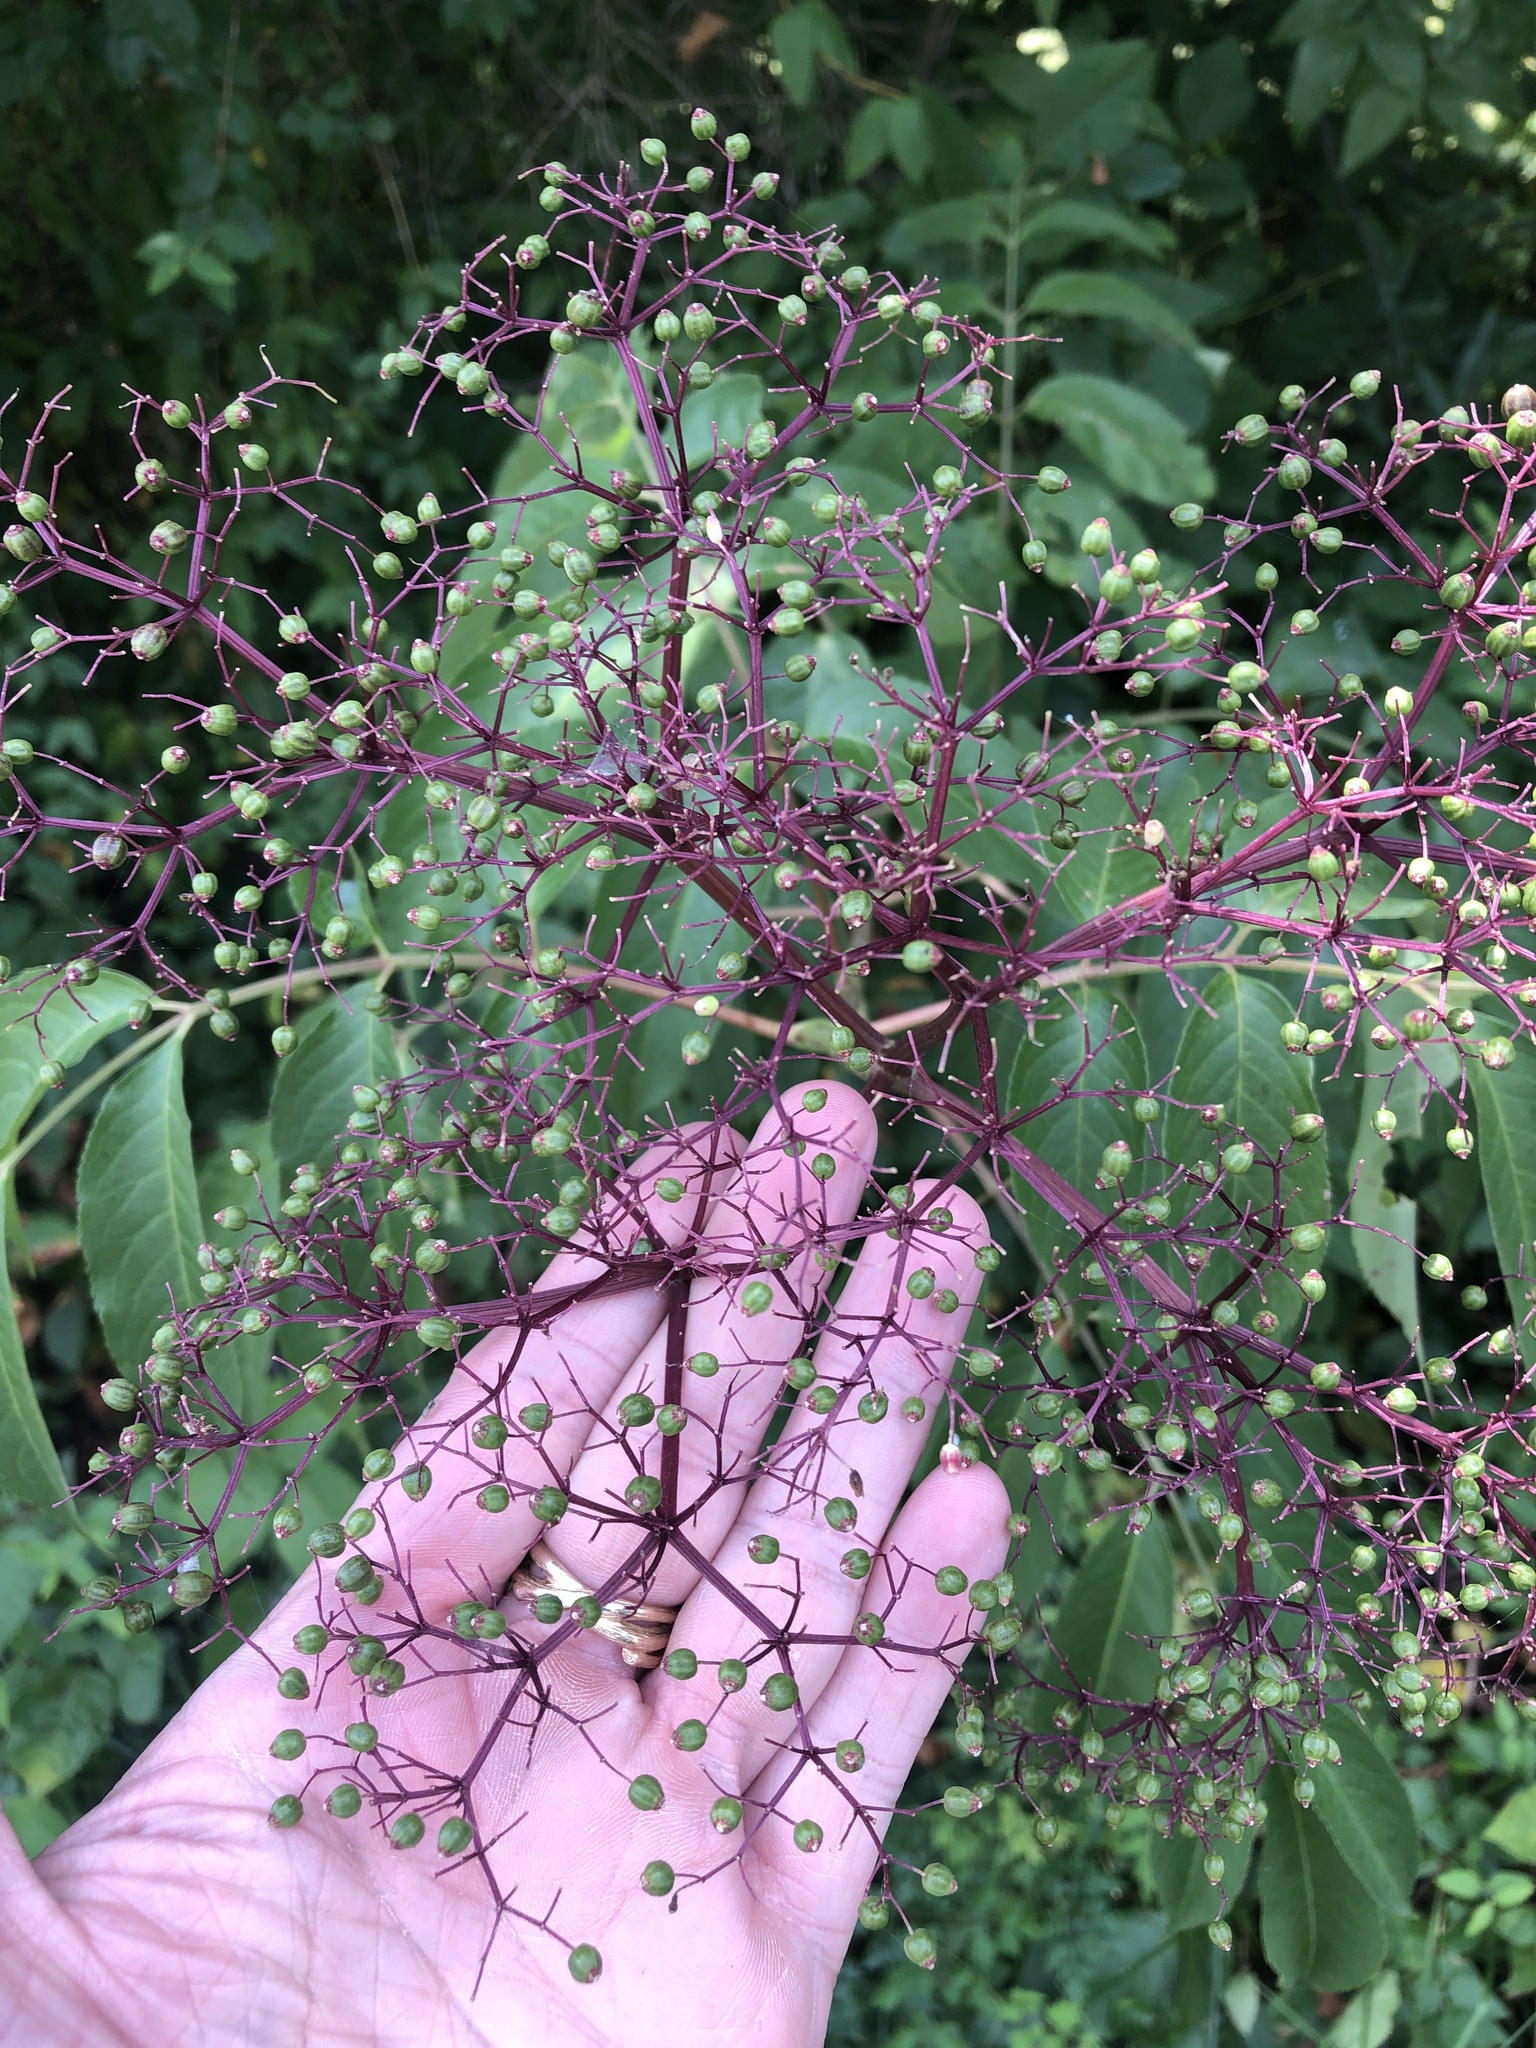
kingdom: Plantae
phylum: Tracheophyta
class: Magnoliopsida
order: Dipsacales
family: Viburnaceae
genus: Sambucus
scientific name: Sambucus canadensis
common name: American elder
